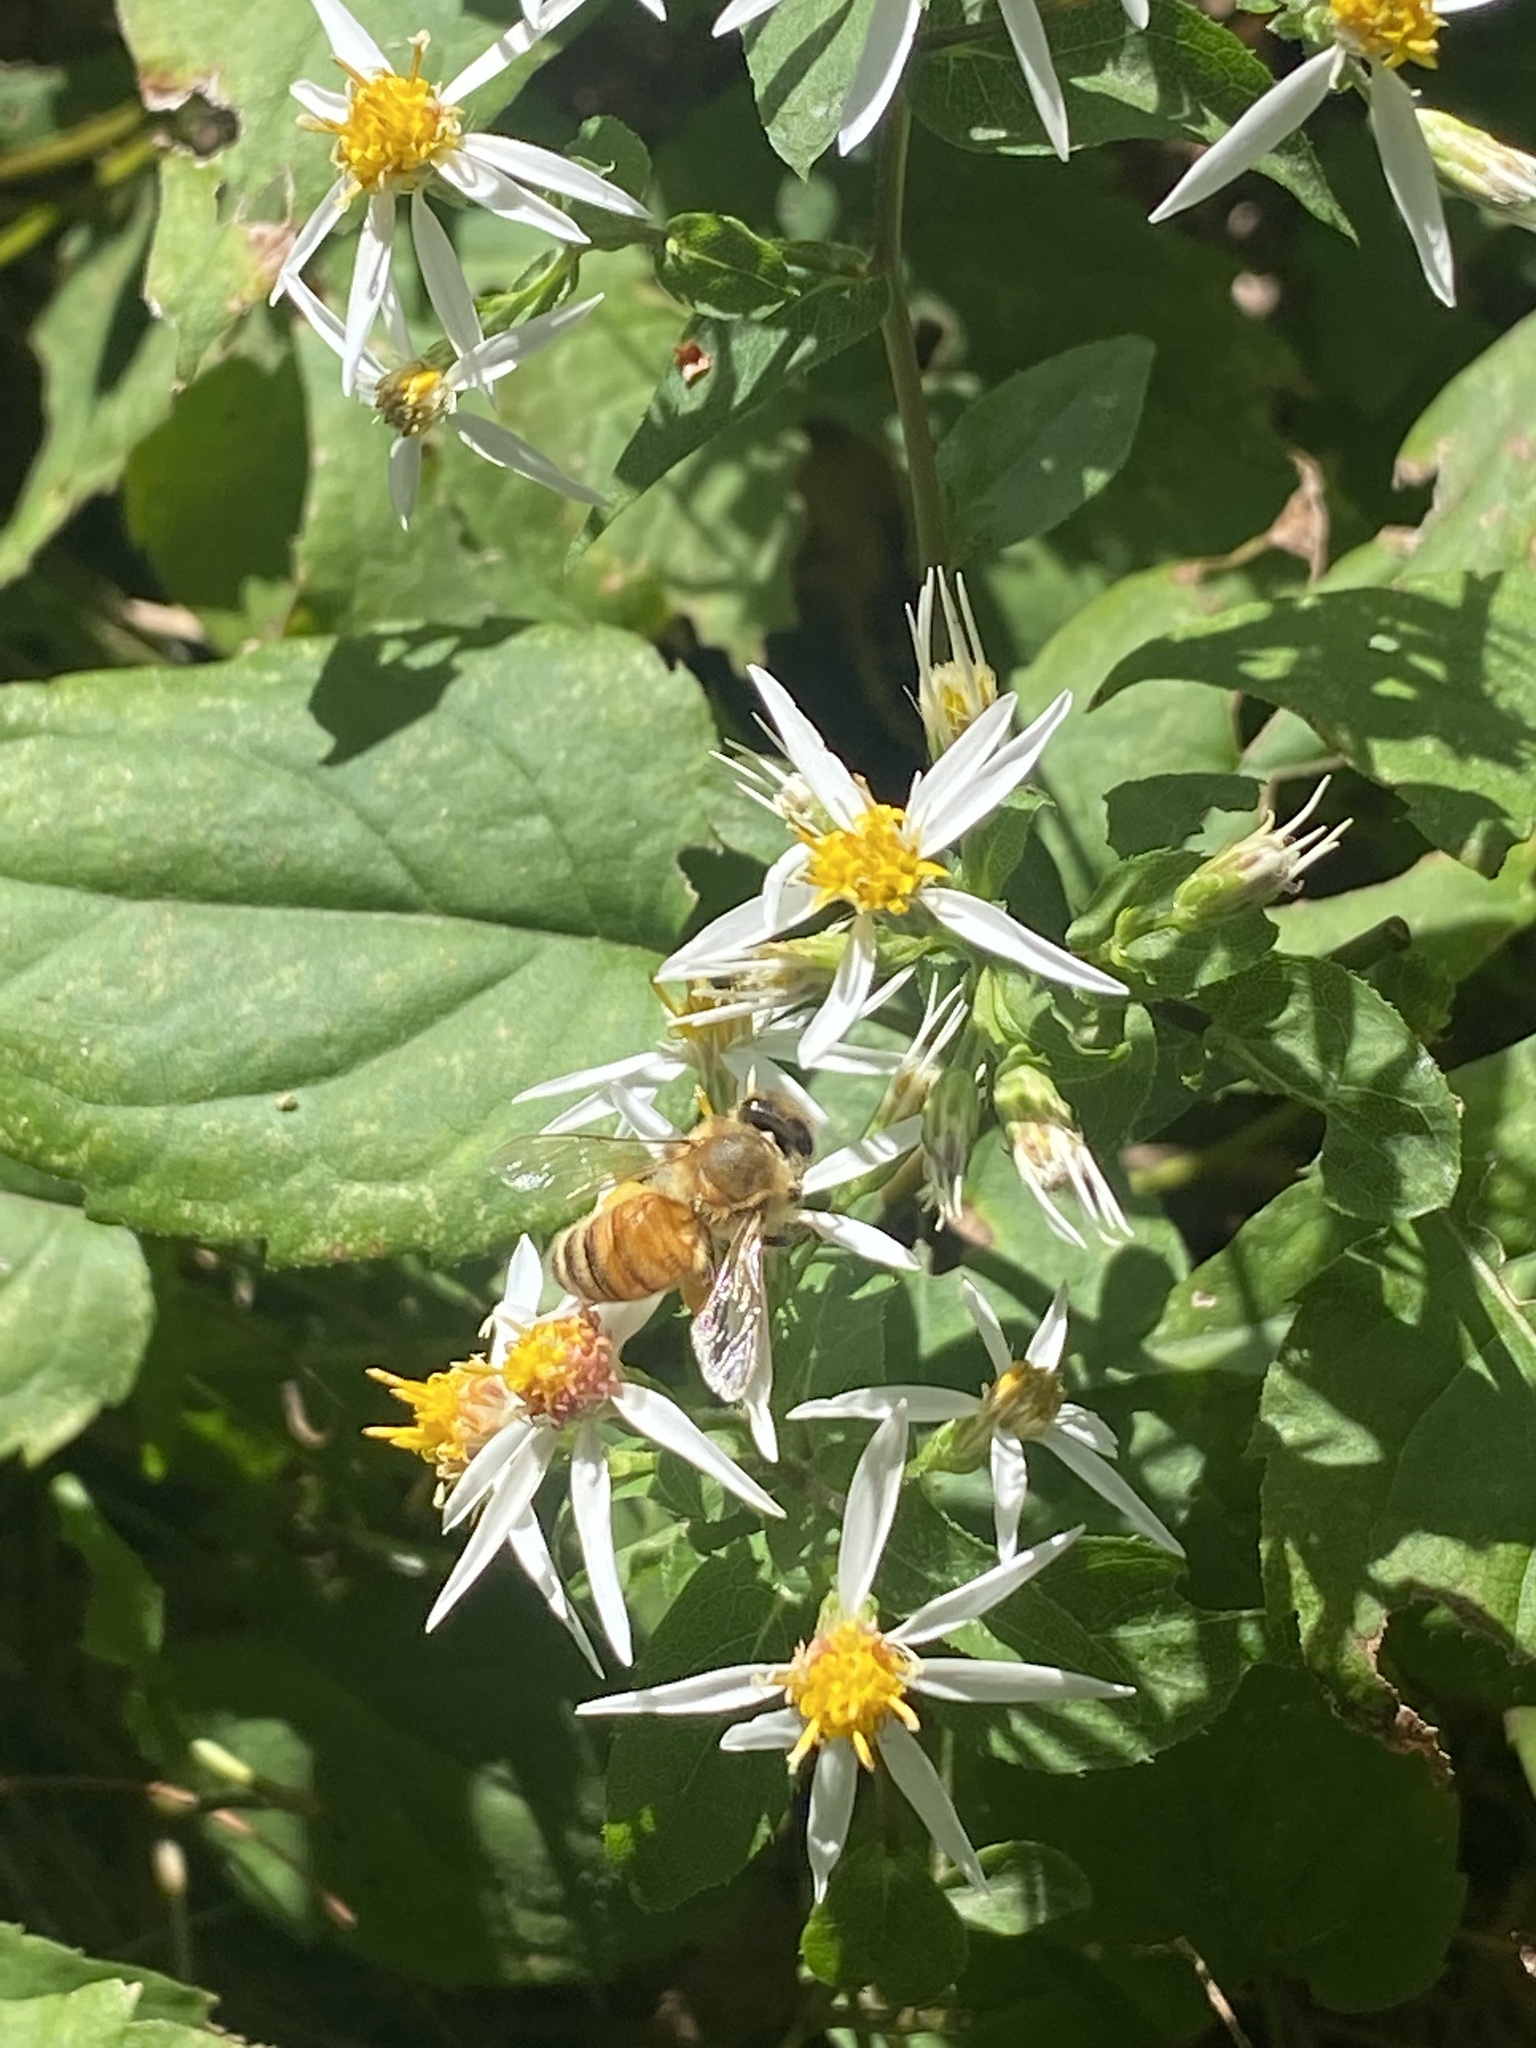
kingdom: Animalia
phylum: Arthropoda
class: Insecta
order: Hymenoptera
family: Apidae
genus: Apis
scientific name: Apis mellifera
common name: Honey bee
